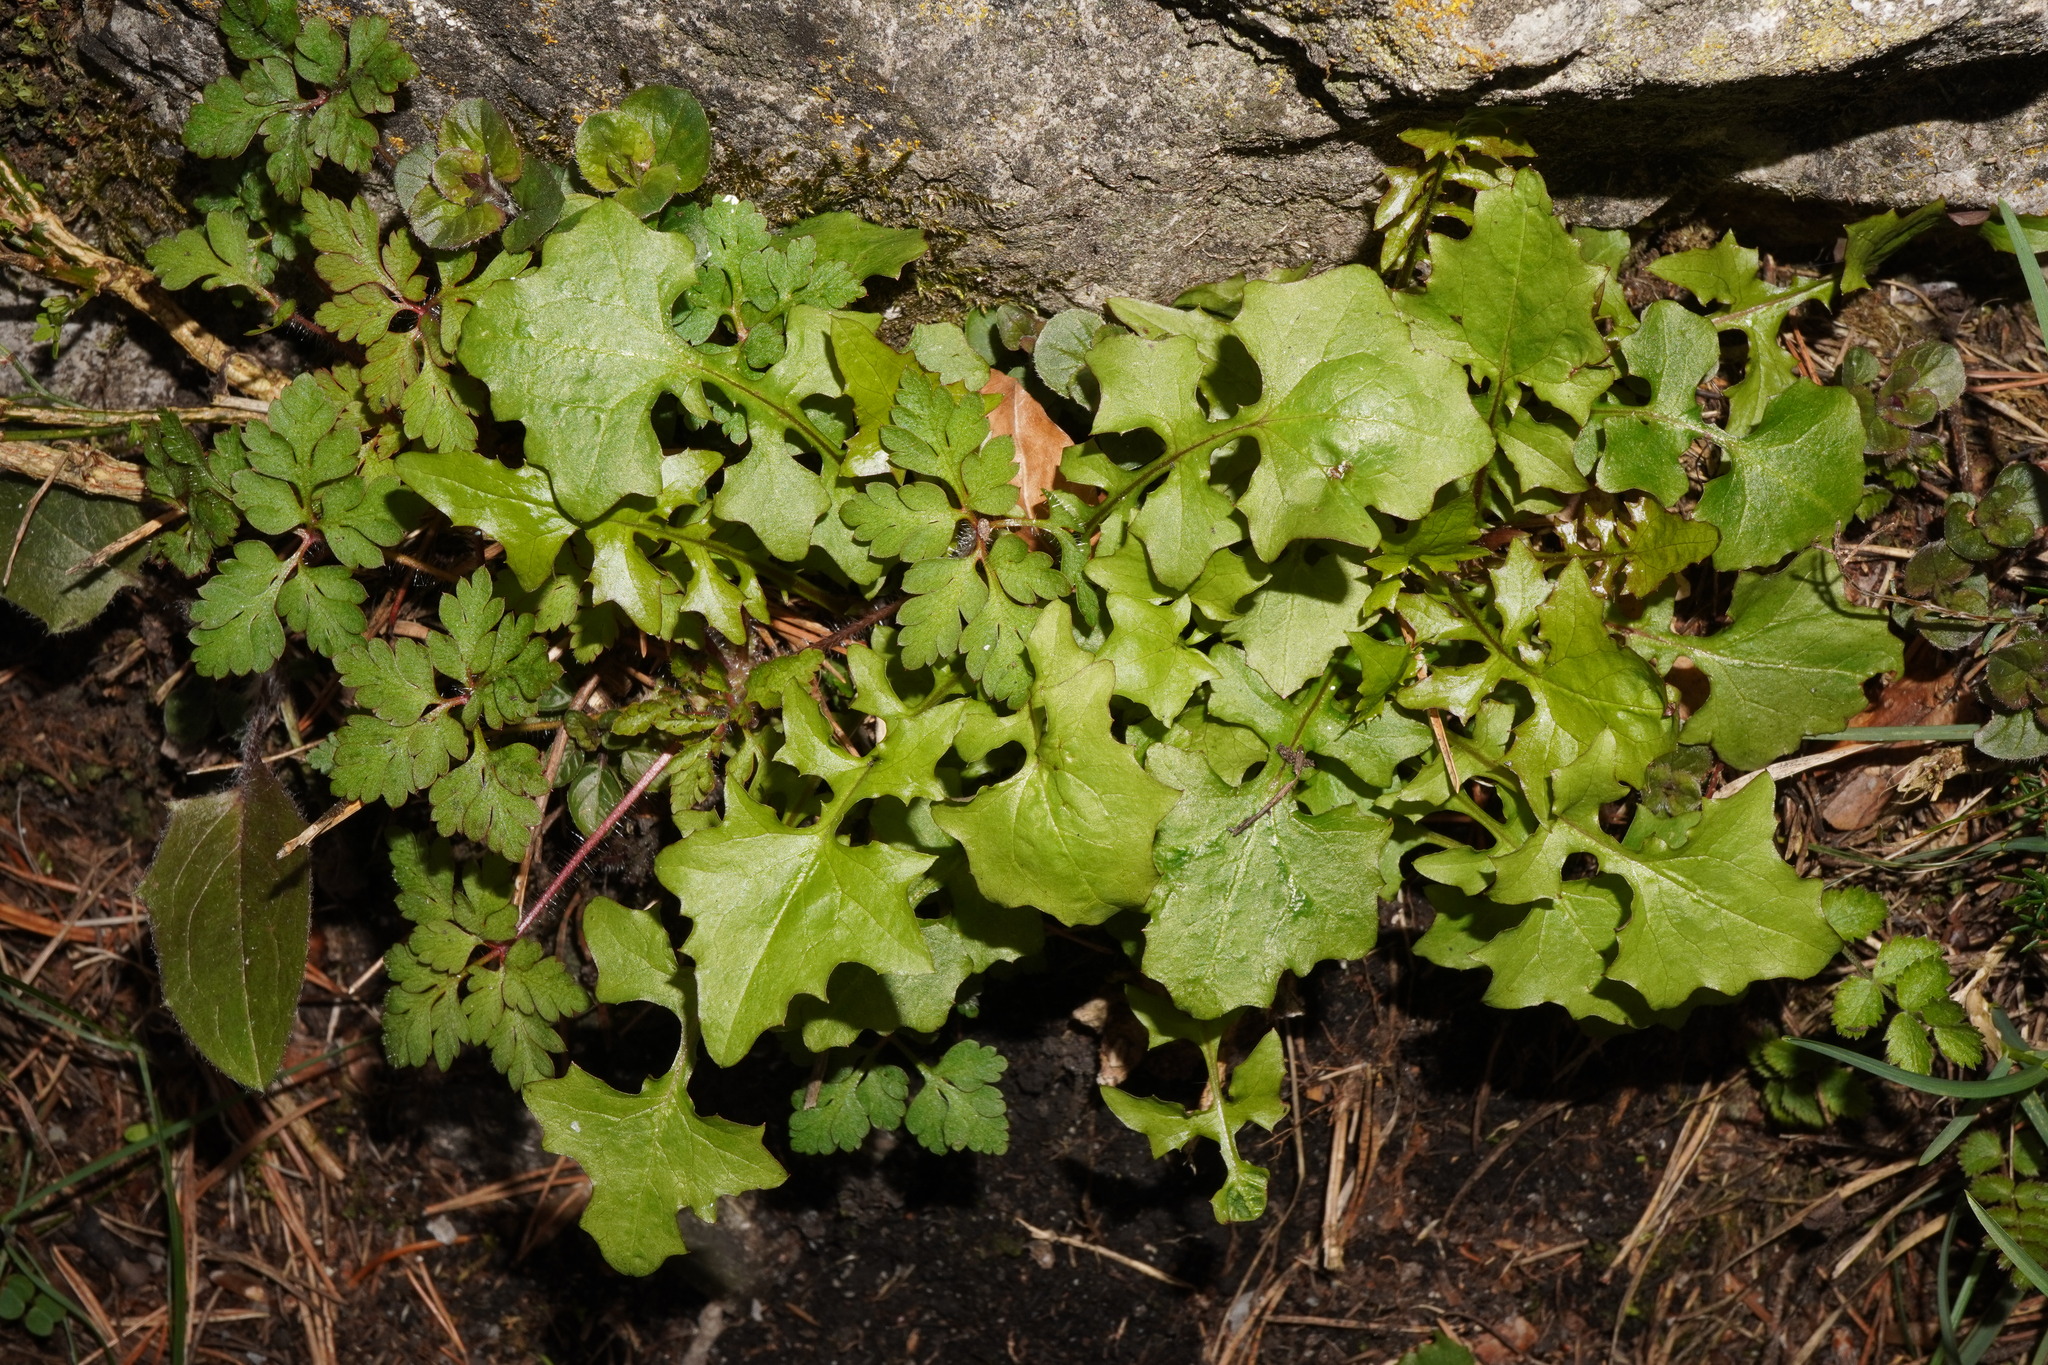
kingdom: Plantae
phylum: Tracheophyta
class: Magnoliopsida
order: Asterales
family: Asteraceae
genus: Mycelis
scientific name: Mycelis muralis
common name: Wall lettuce
